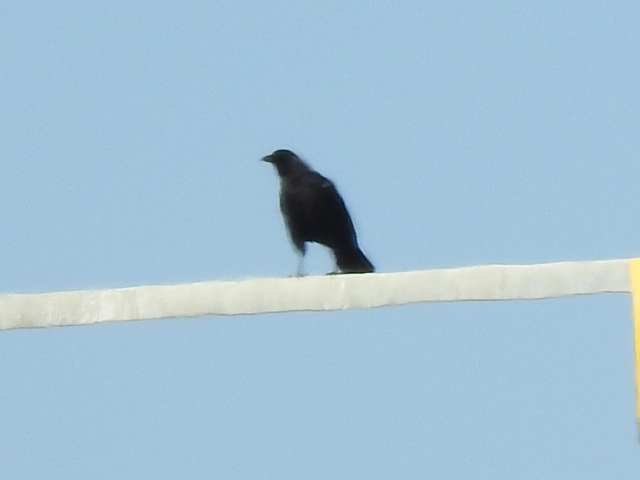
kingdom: Animalia
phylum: Chordata
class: Aves
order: Passeriformes
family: Corvidae
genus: Corvus
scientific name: Corvus brachyrhynchos
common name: American crow
